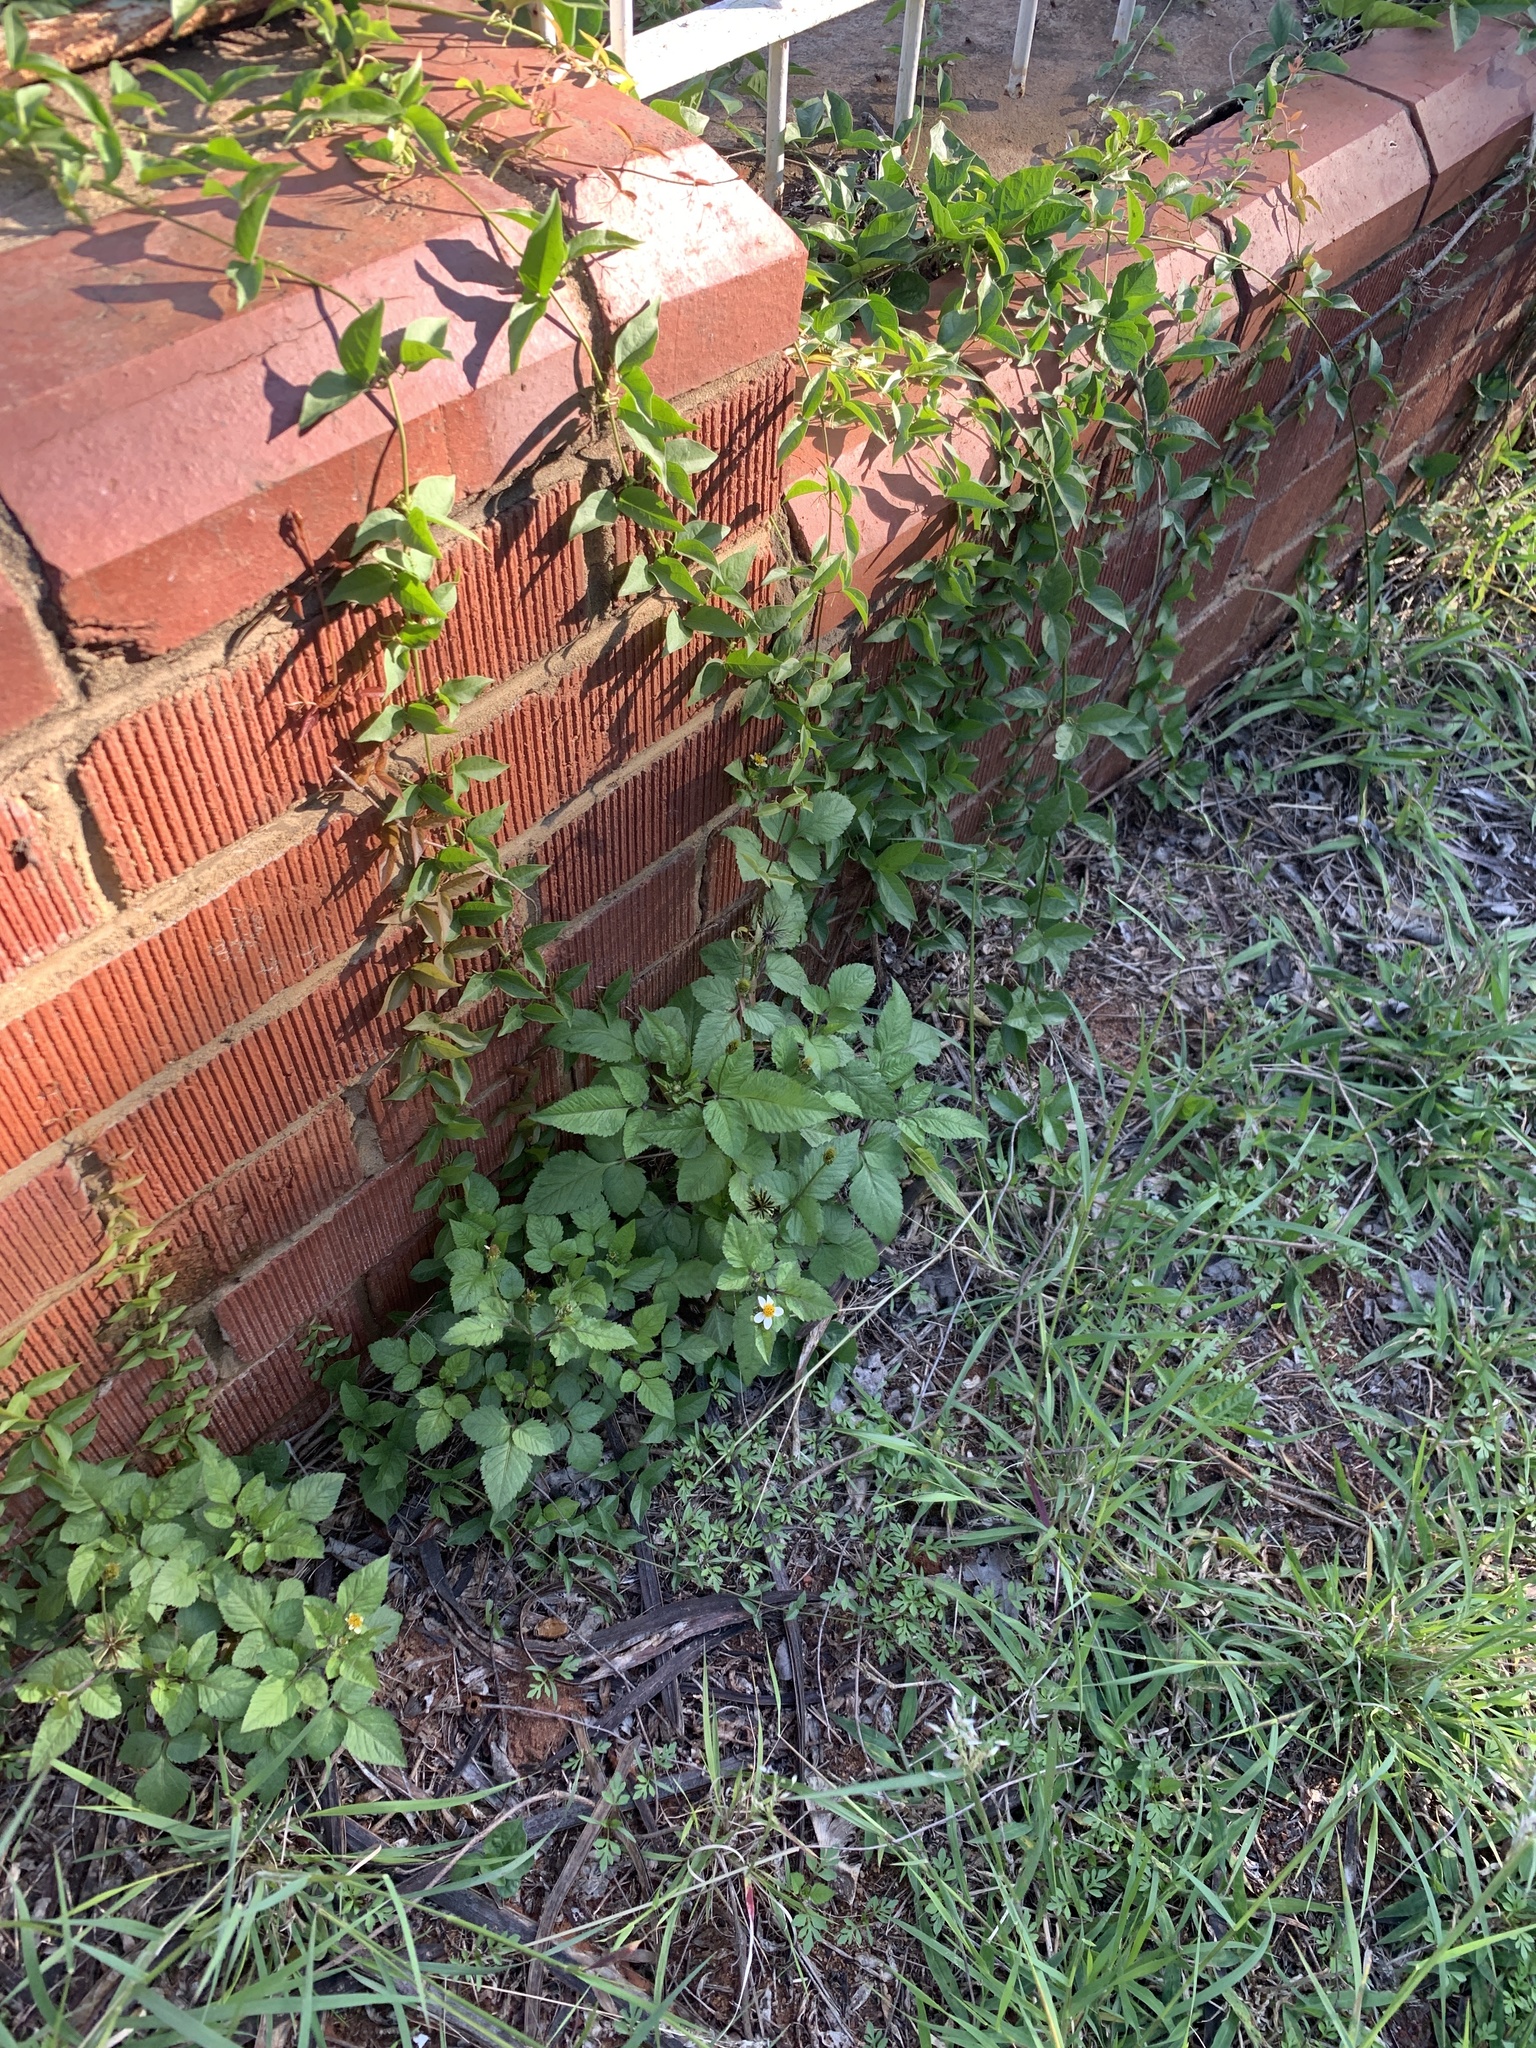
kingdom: Plantae
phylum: Tracheophyta
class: Magnoliopsida
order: Asterales
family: Asteraceae
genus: Bidens
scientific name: Bidens pilosa
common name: Black-jack
